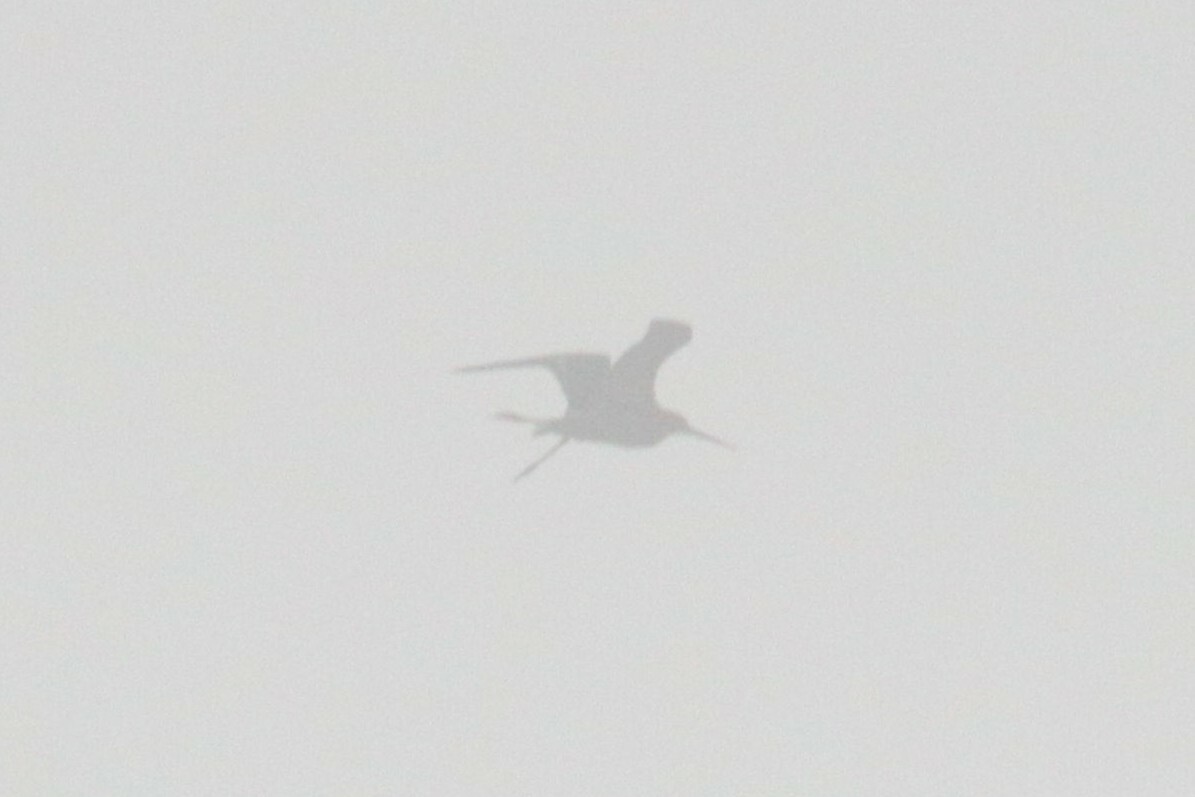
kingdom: Animalia
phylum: Chordata
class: Aves
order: Charadriiformes
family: Scolopacidae
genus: Limosa
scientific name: Limosa limosa
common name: Black-tailed godwit
